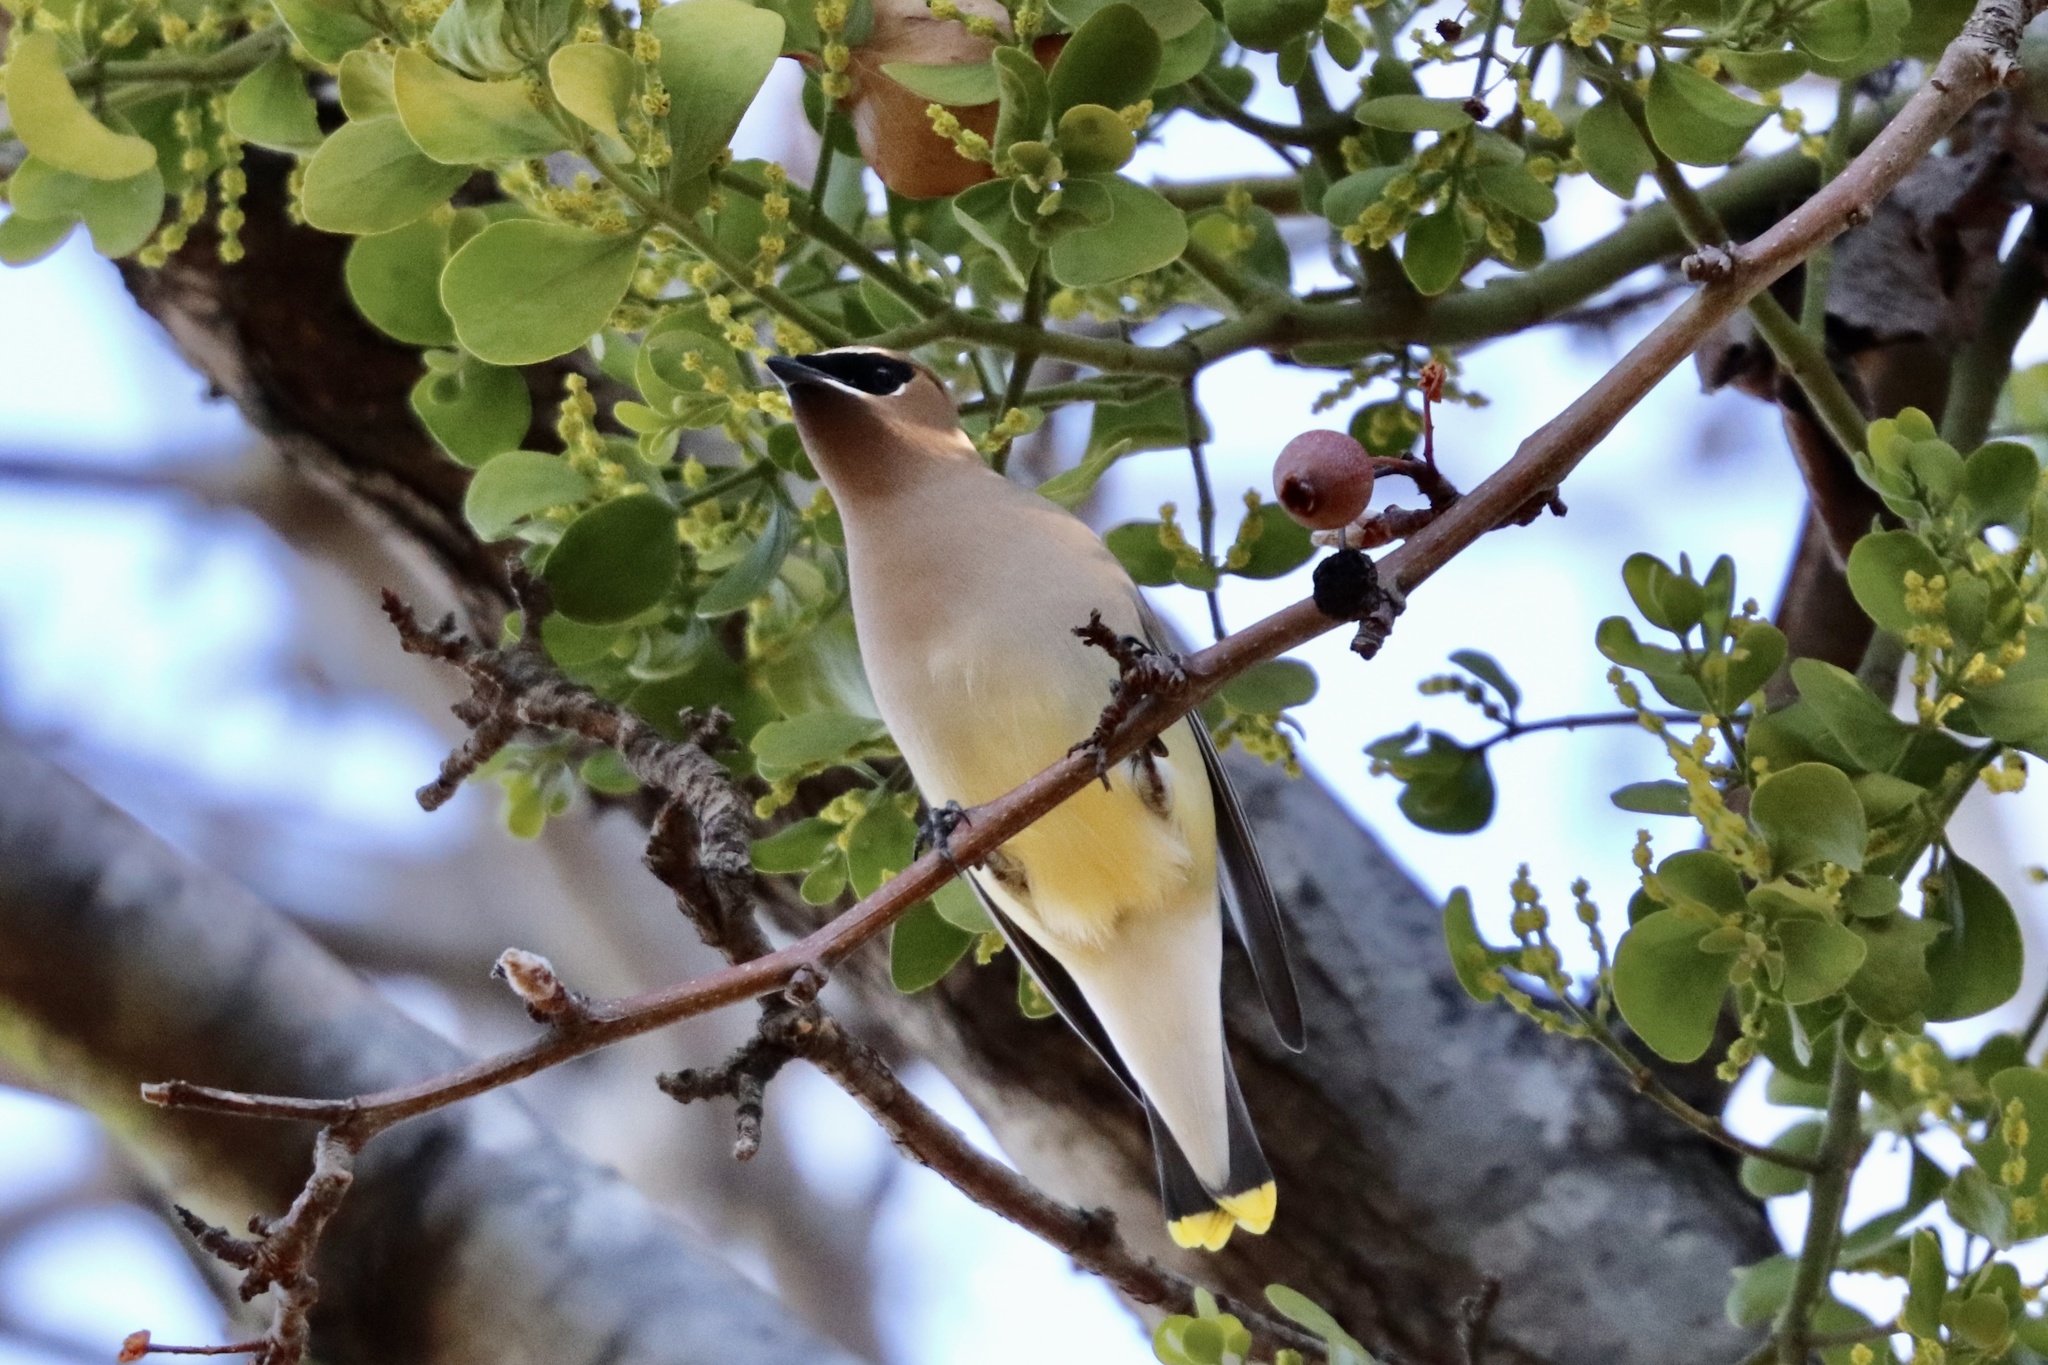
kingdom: Animalia
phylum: Chordata
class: Aves
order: Passeriformes
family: Bombycillidae
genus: Bombycilla
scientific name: Bombycilla cedrorum
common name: Cedar waxwing
